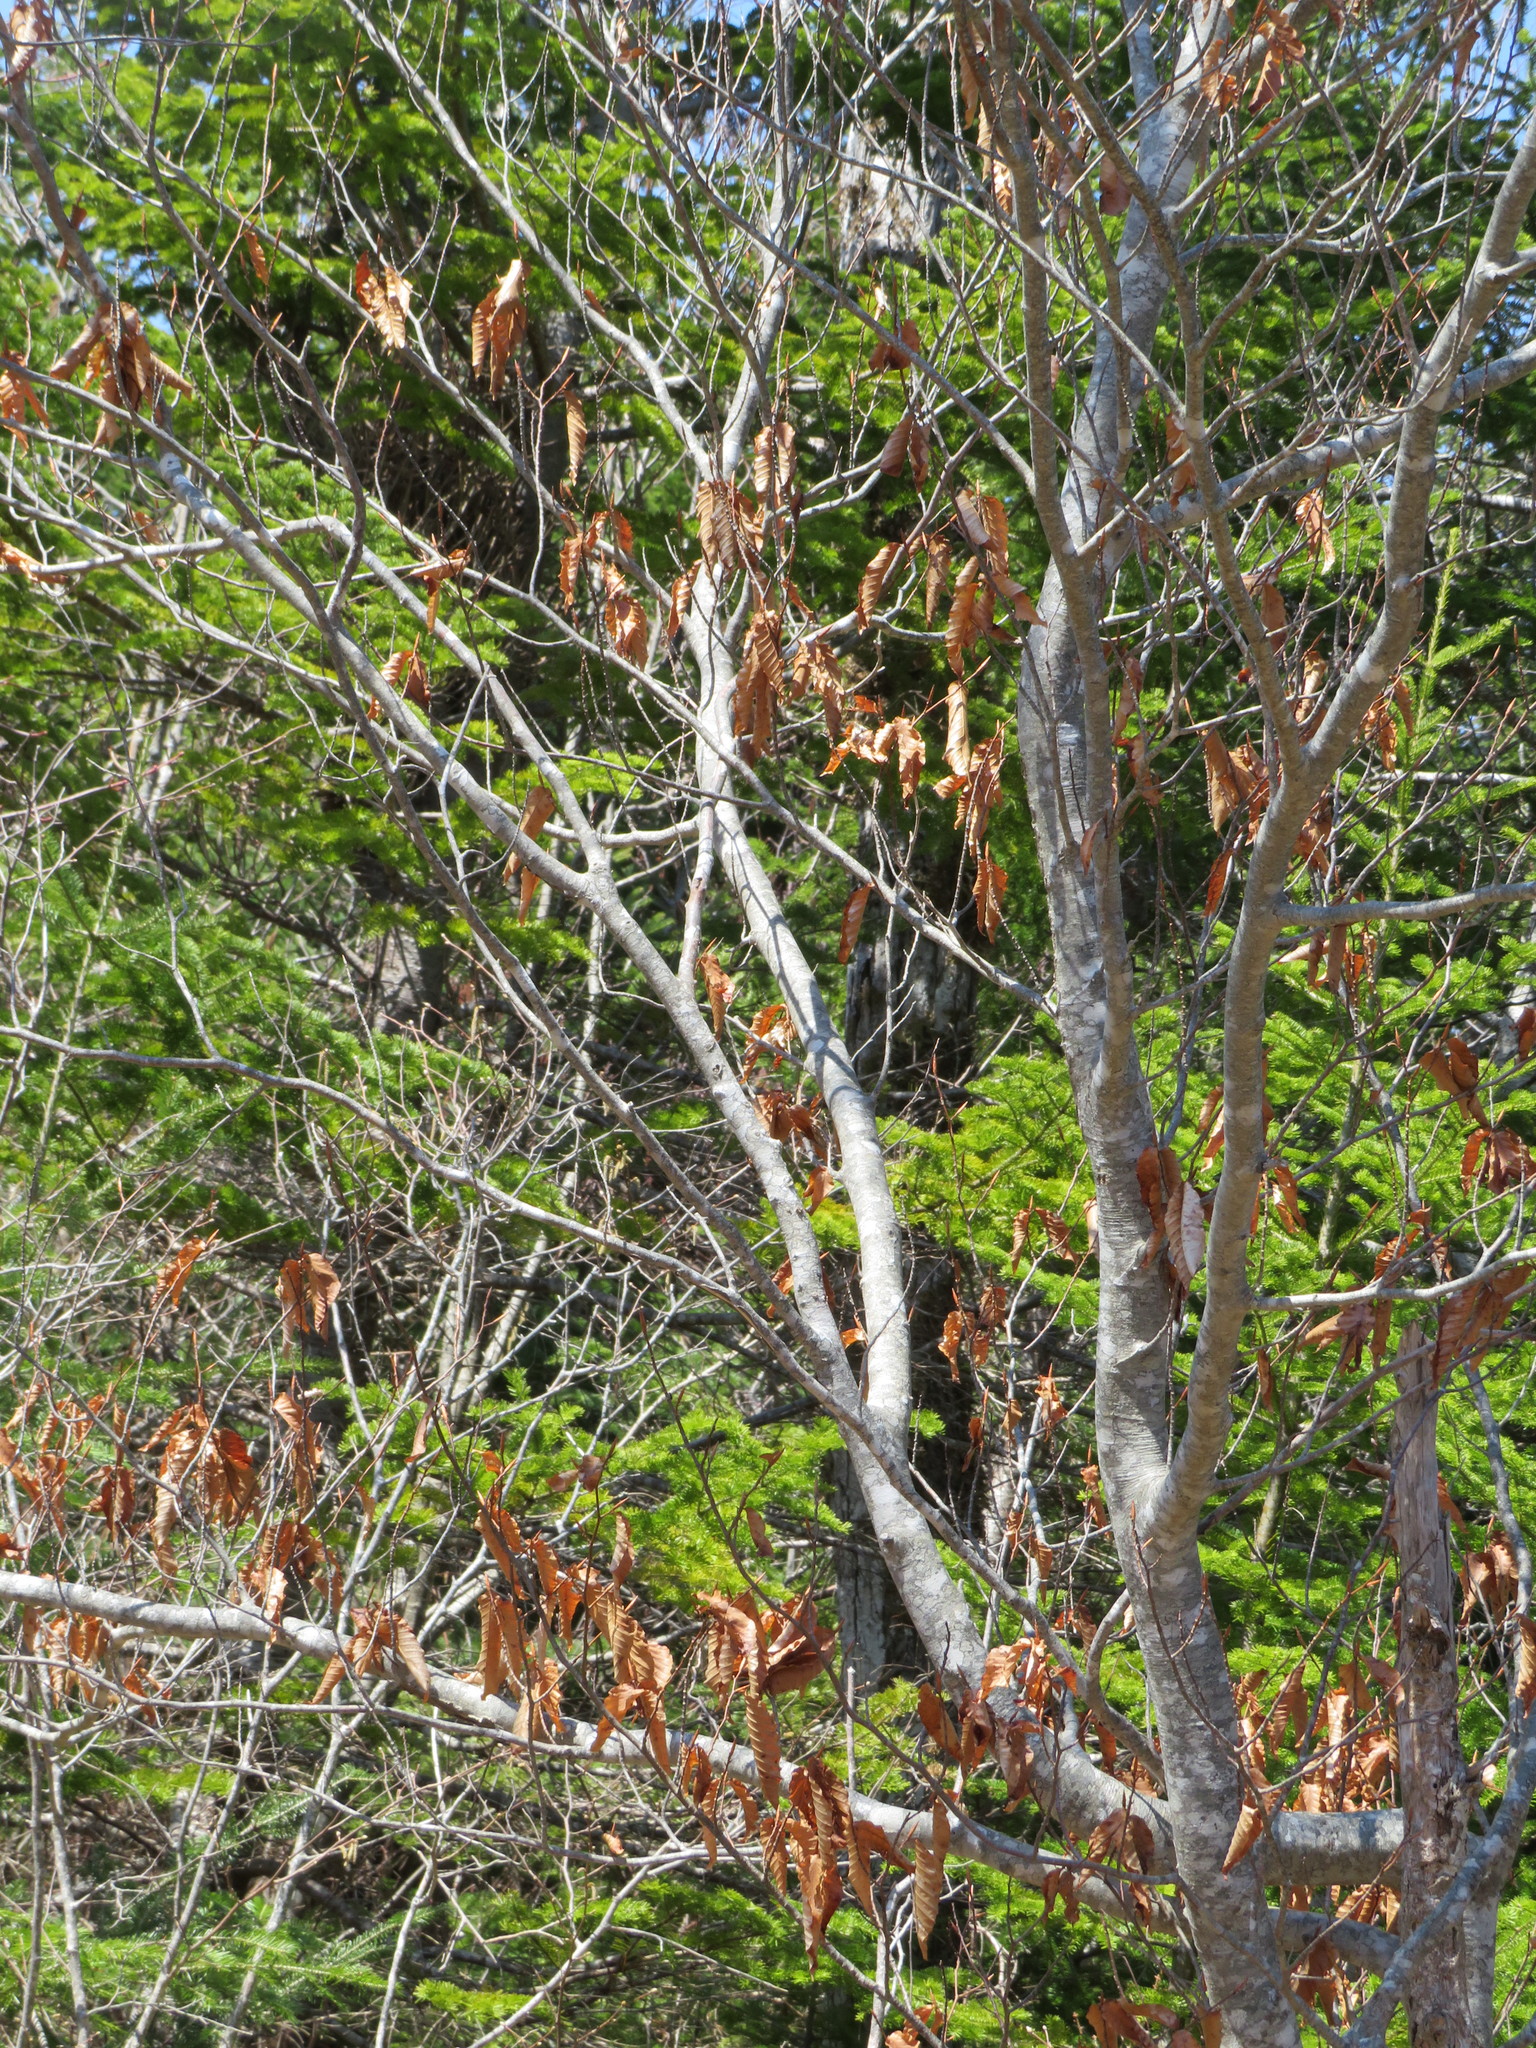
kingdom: Plantae
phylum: Tracheophyta
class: Magnoliopsida
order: Fagales
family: Fagaceae
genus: Fagus
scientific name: Fagus grandifolia
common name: American beech
